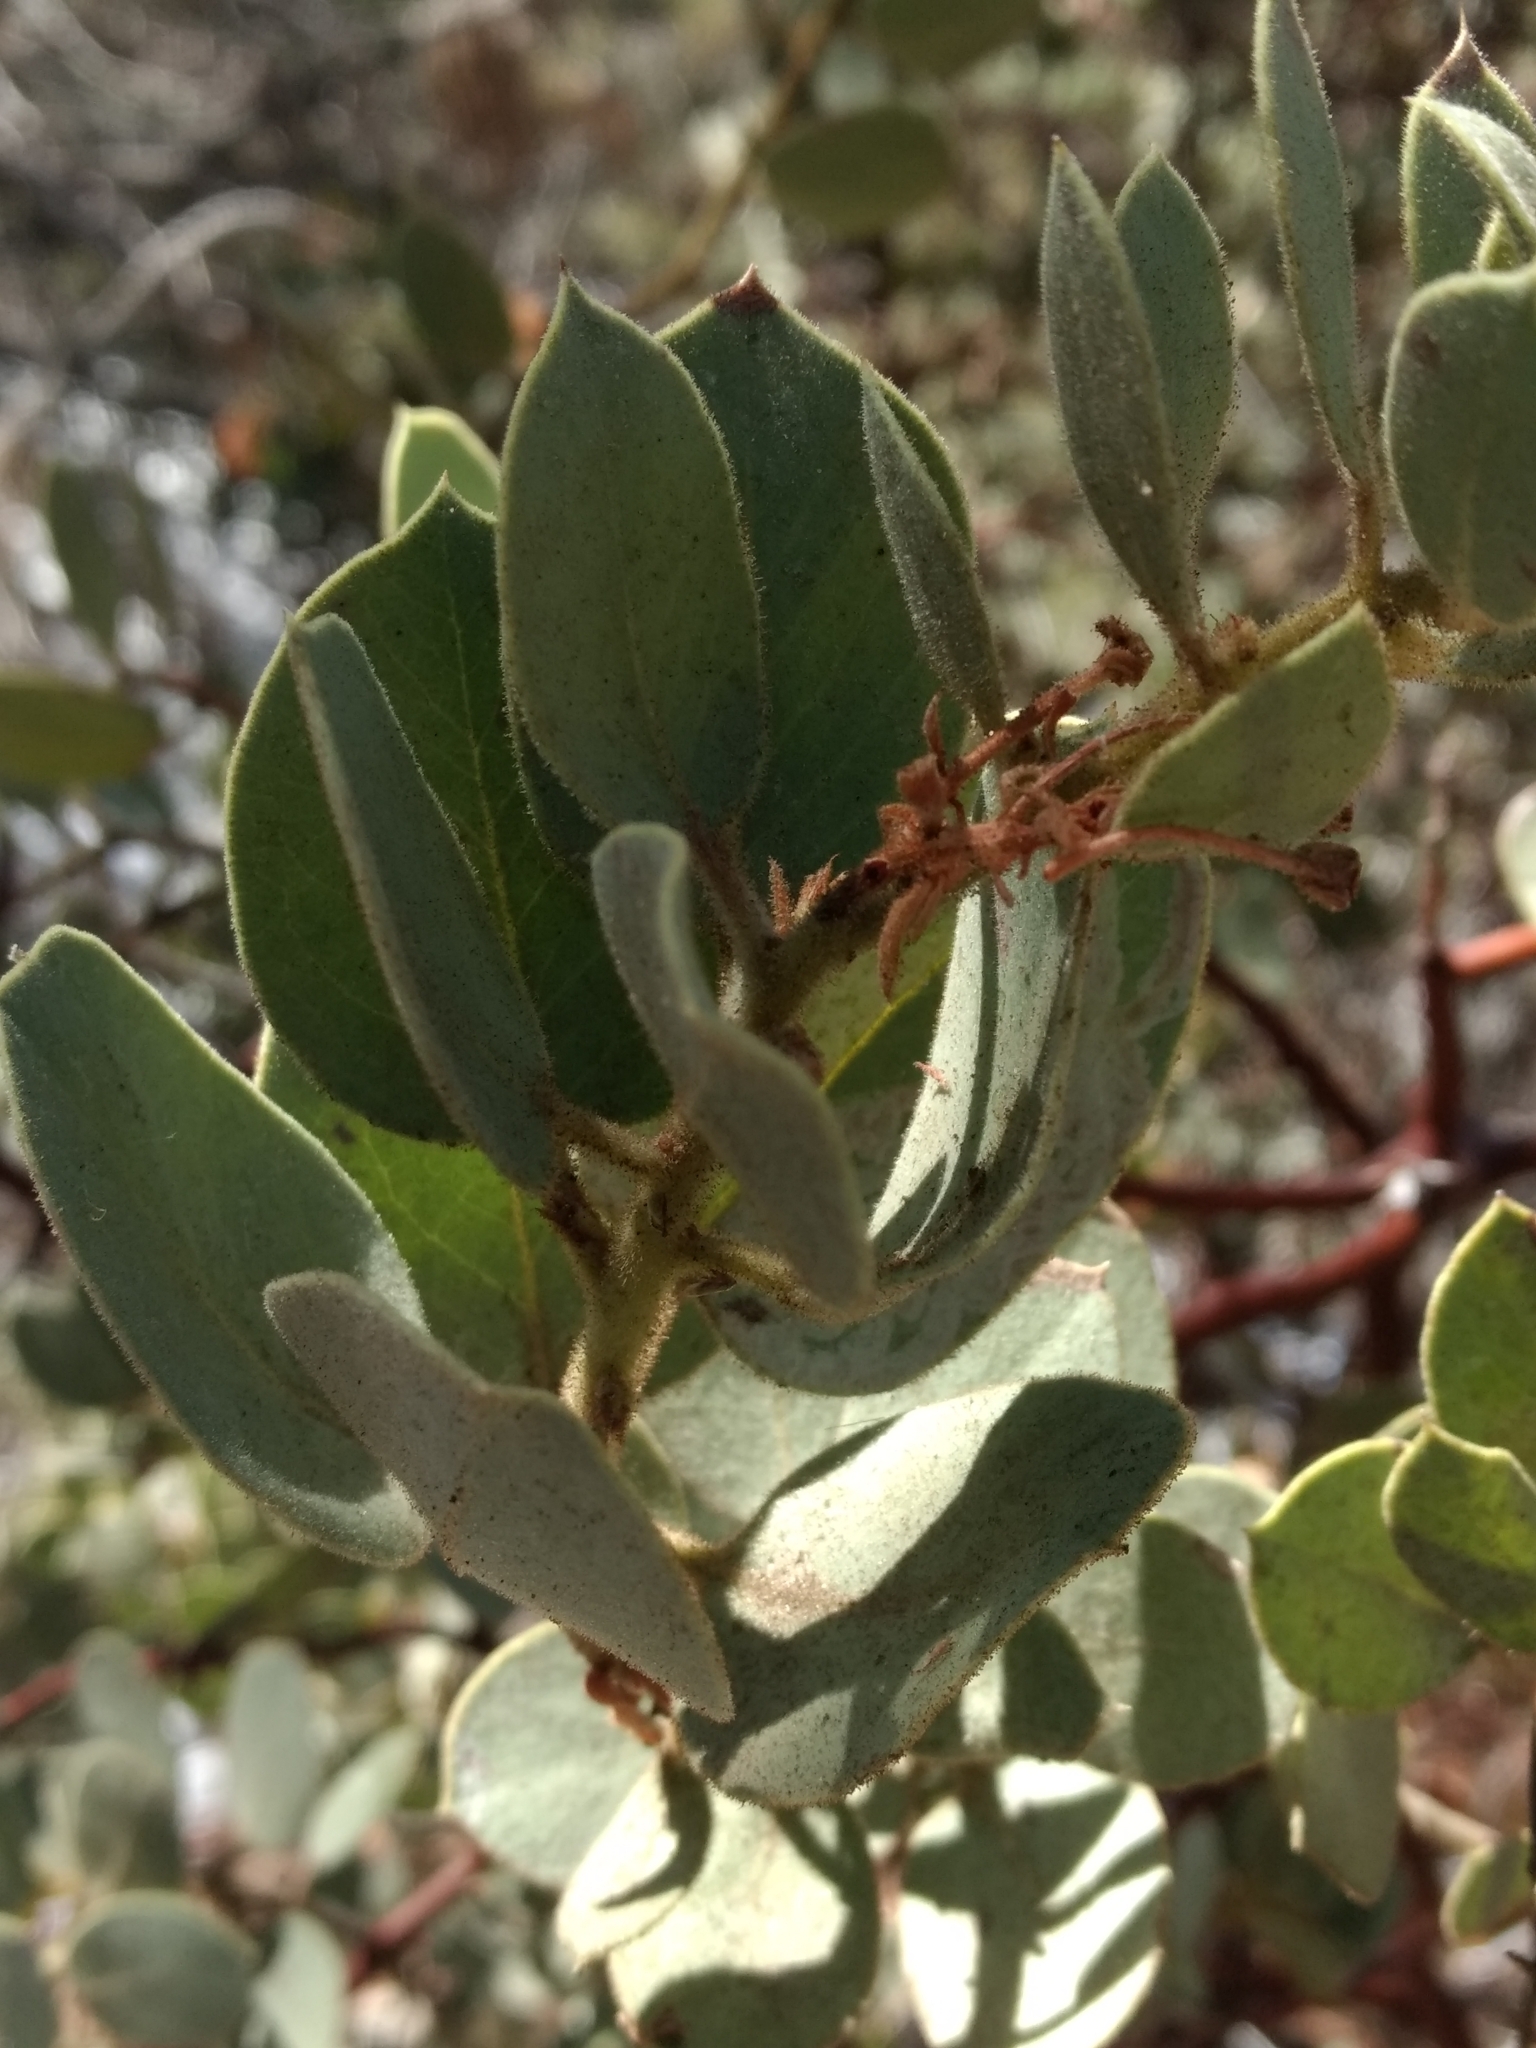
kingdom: Plantae
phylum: Tracheophyta
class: Magnoliopsida
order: Ericales
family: Ericaceae
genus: Arctostaphylos
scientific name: Arctostaphylos pringlei
